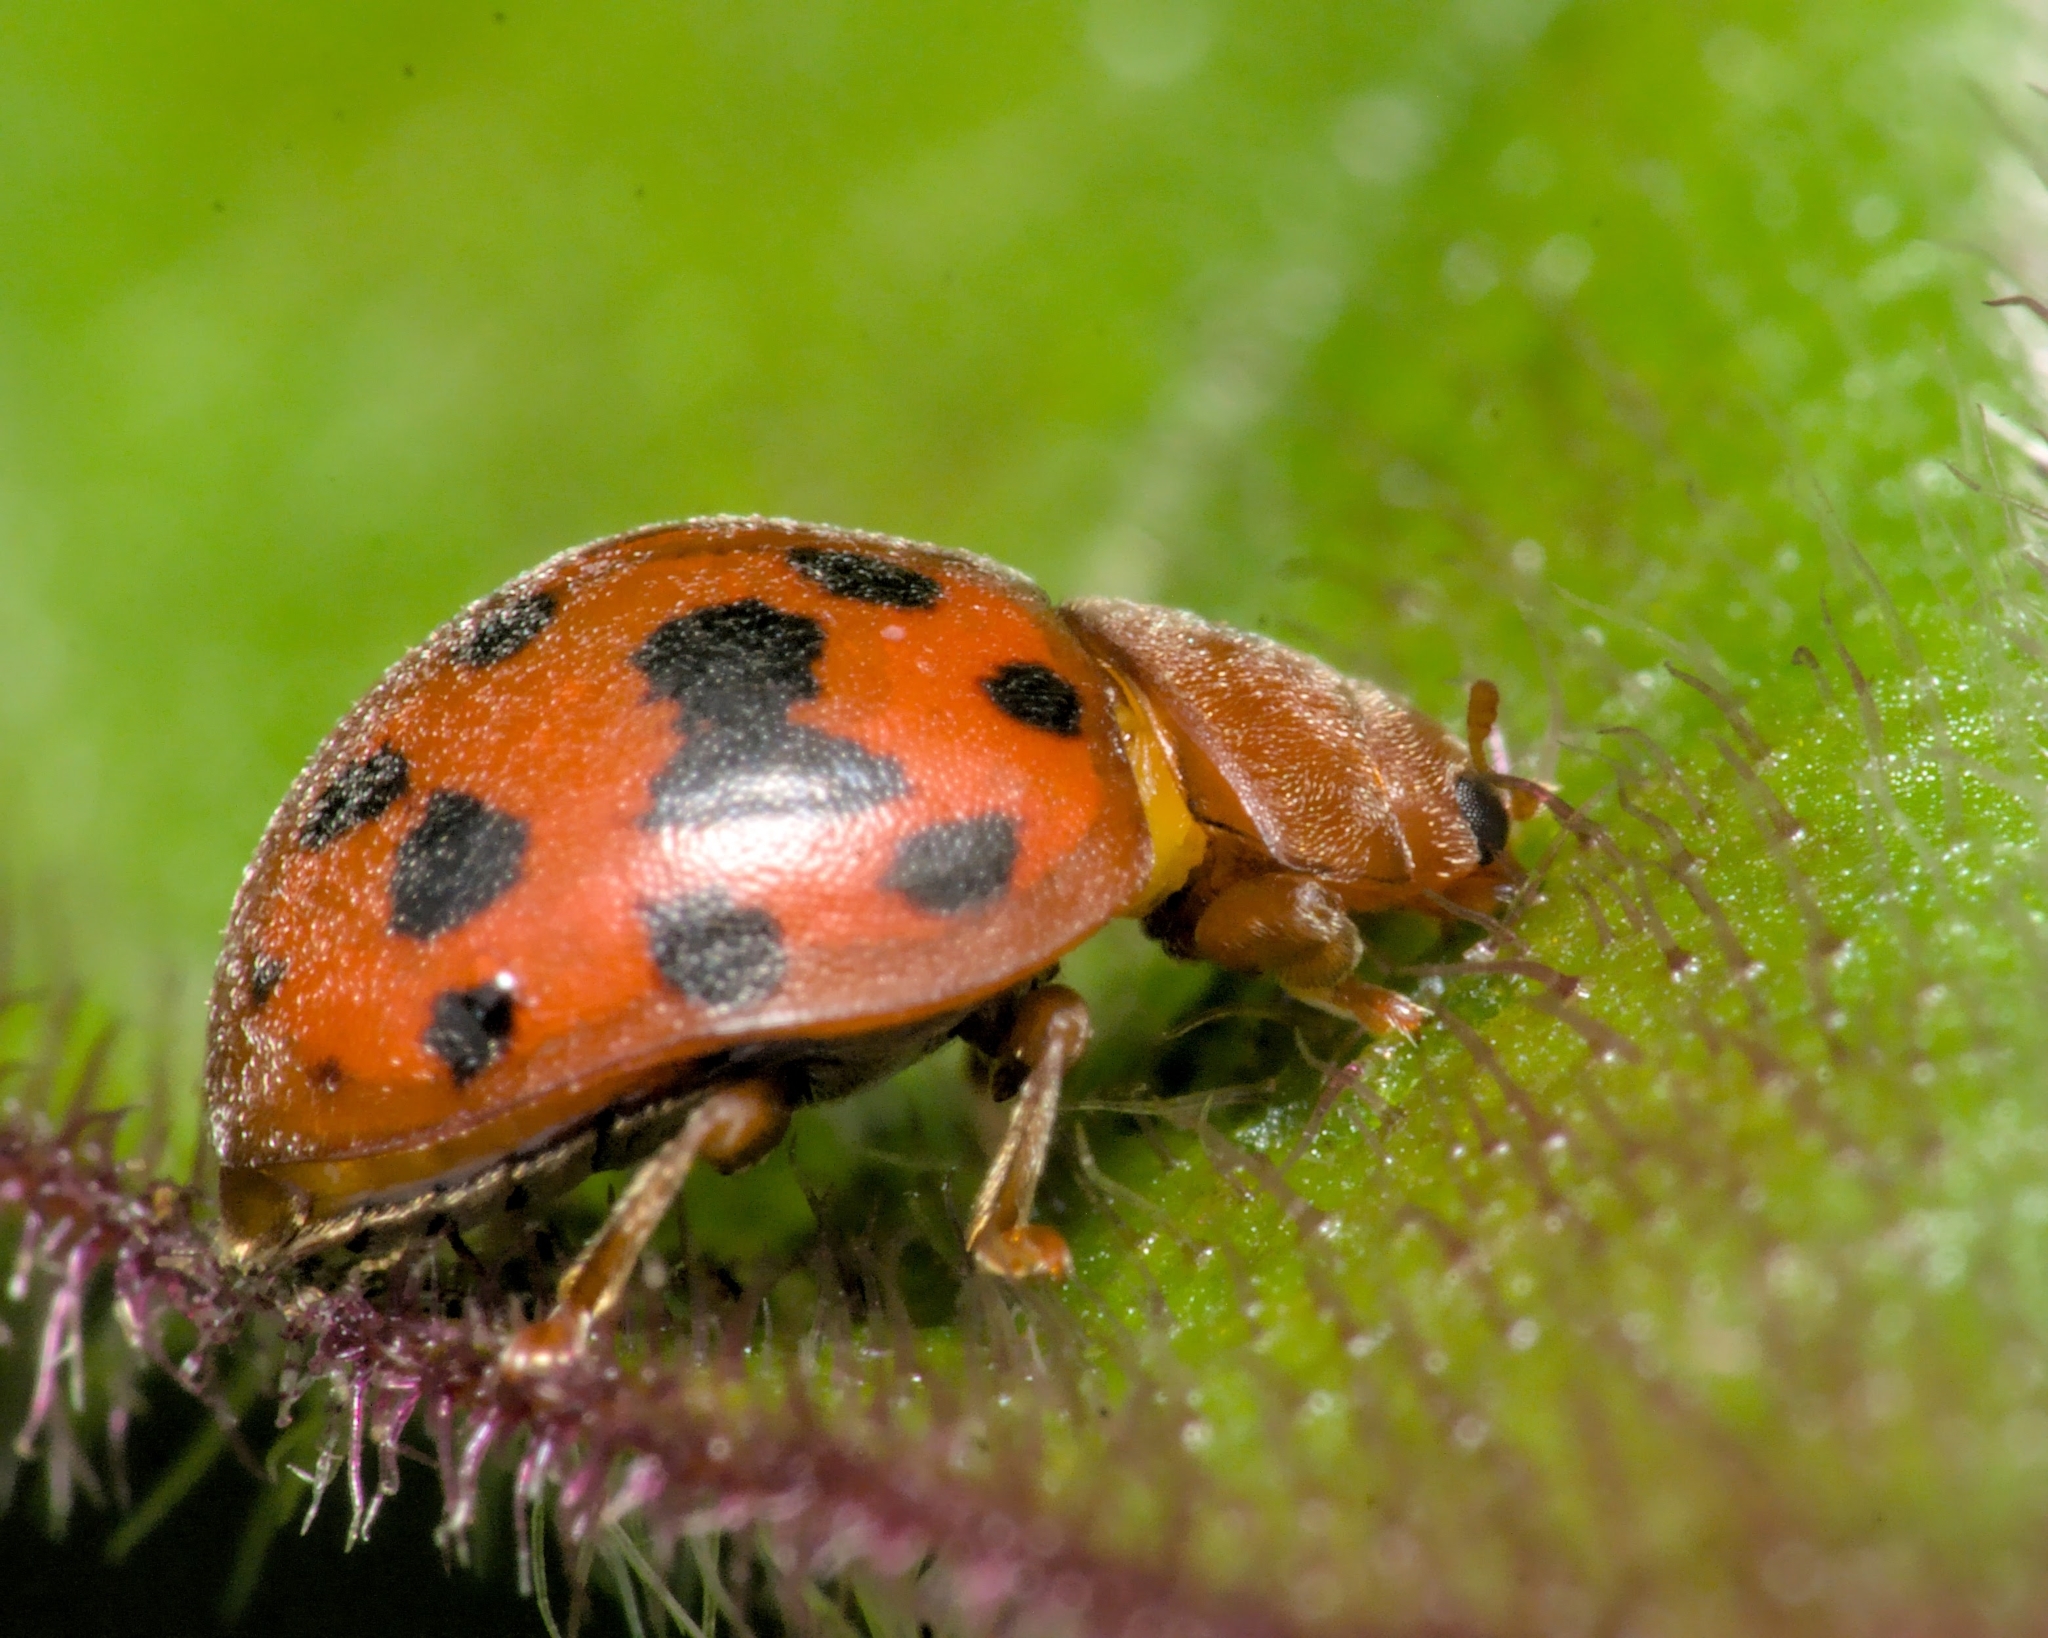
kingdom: Animalia
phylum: Arthropoda
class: Insecta
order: Coleoptera
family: Coccinellidae
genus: Subcoccinella
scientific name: Subcoccinella vigintiquatuorpunctata
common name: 24-spot ladybird
